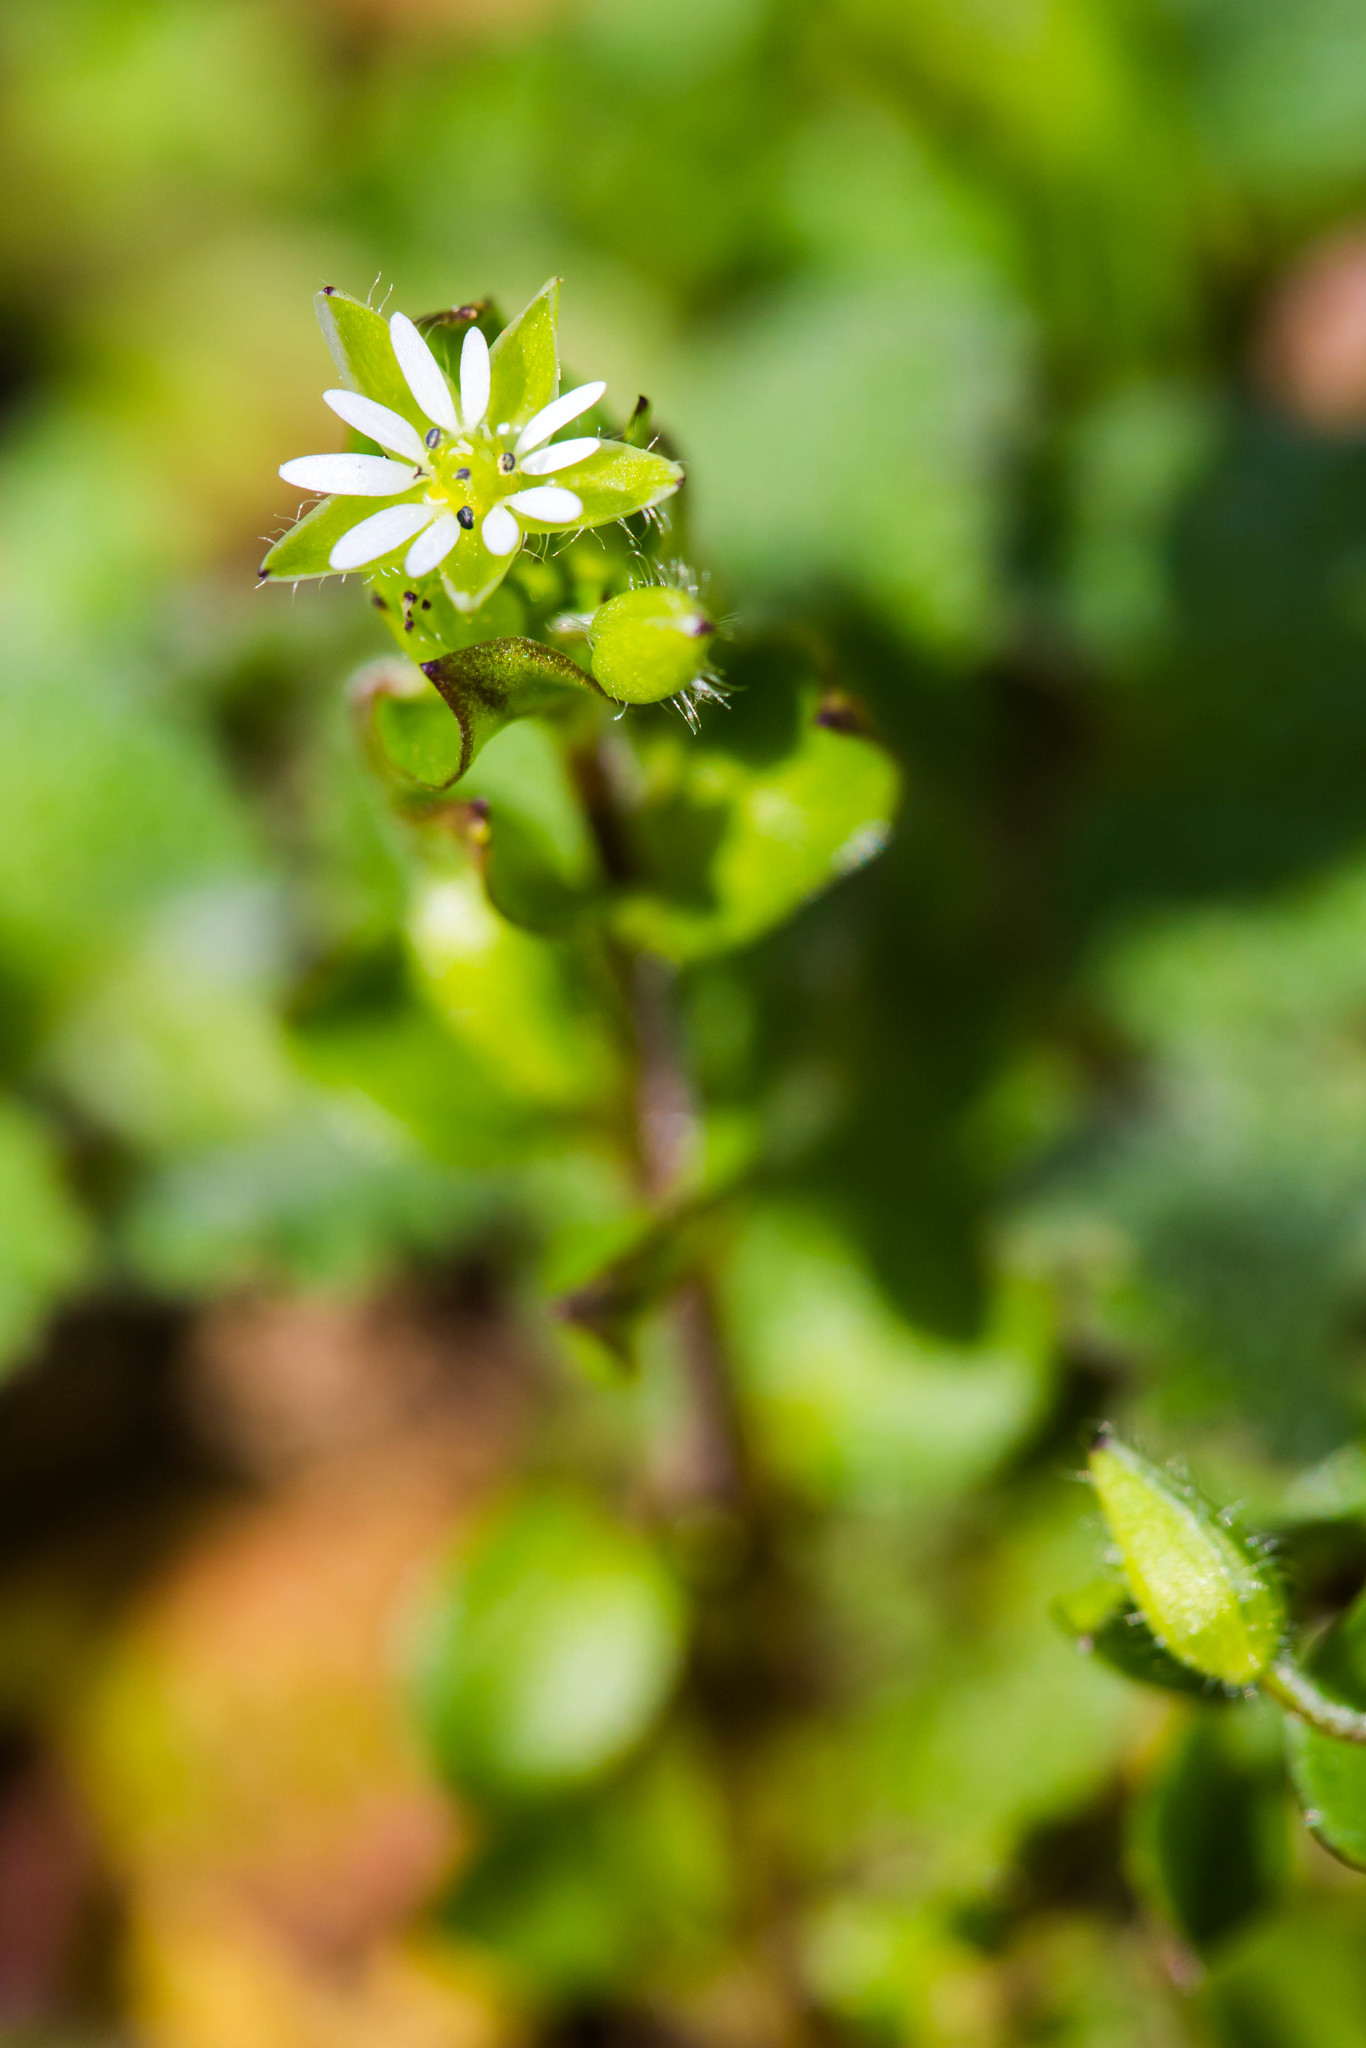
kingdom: Plantae
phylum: Tracheophyta
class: Magnoliopsida
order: Caryophyllales
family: Caryophyllaceae
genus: Stellaria
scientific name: Stellaria media
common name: Common chickweed
